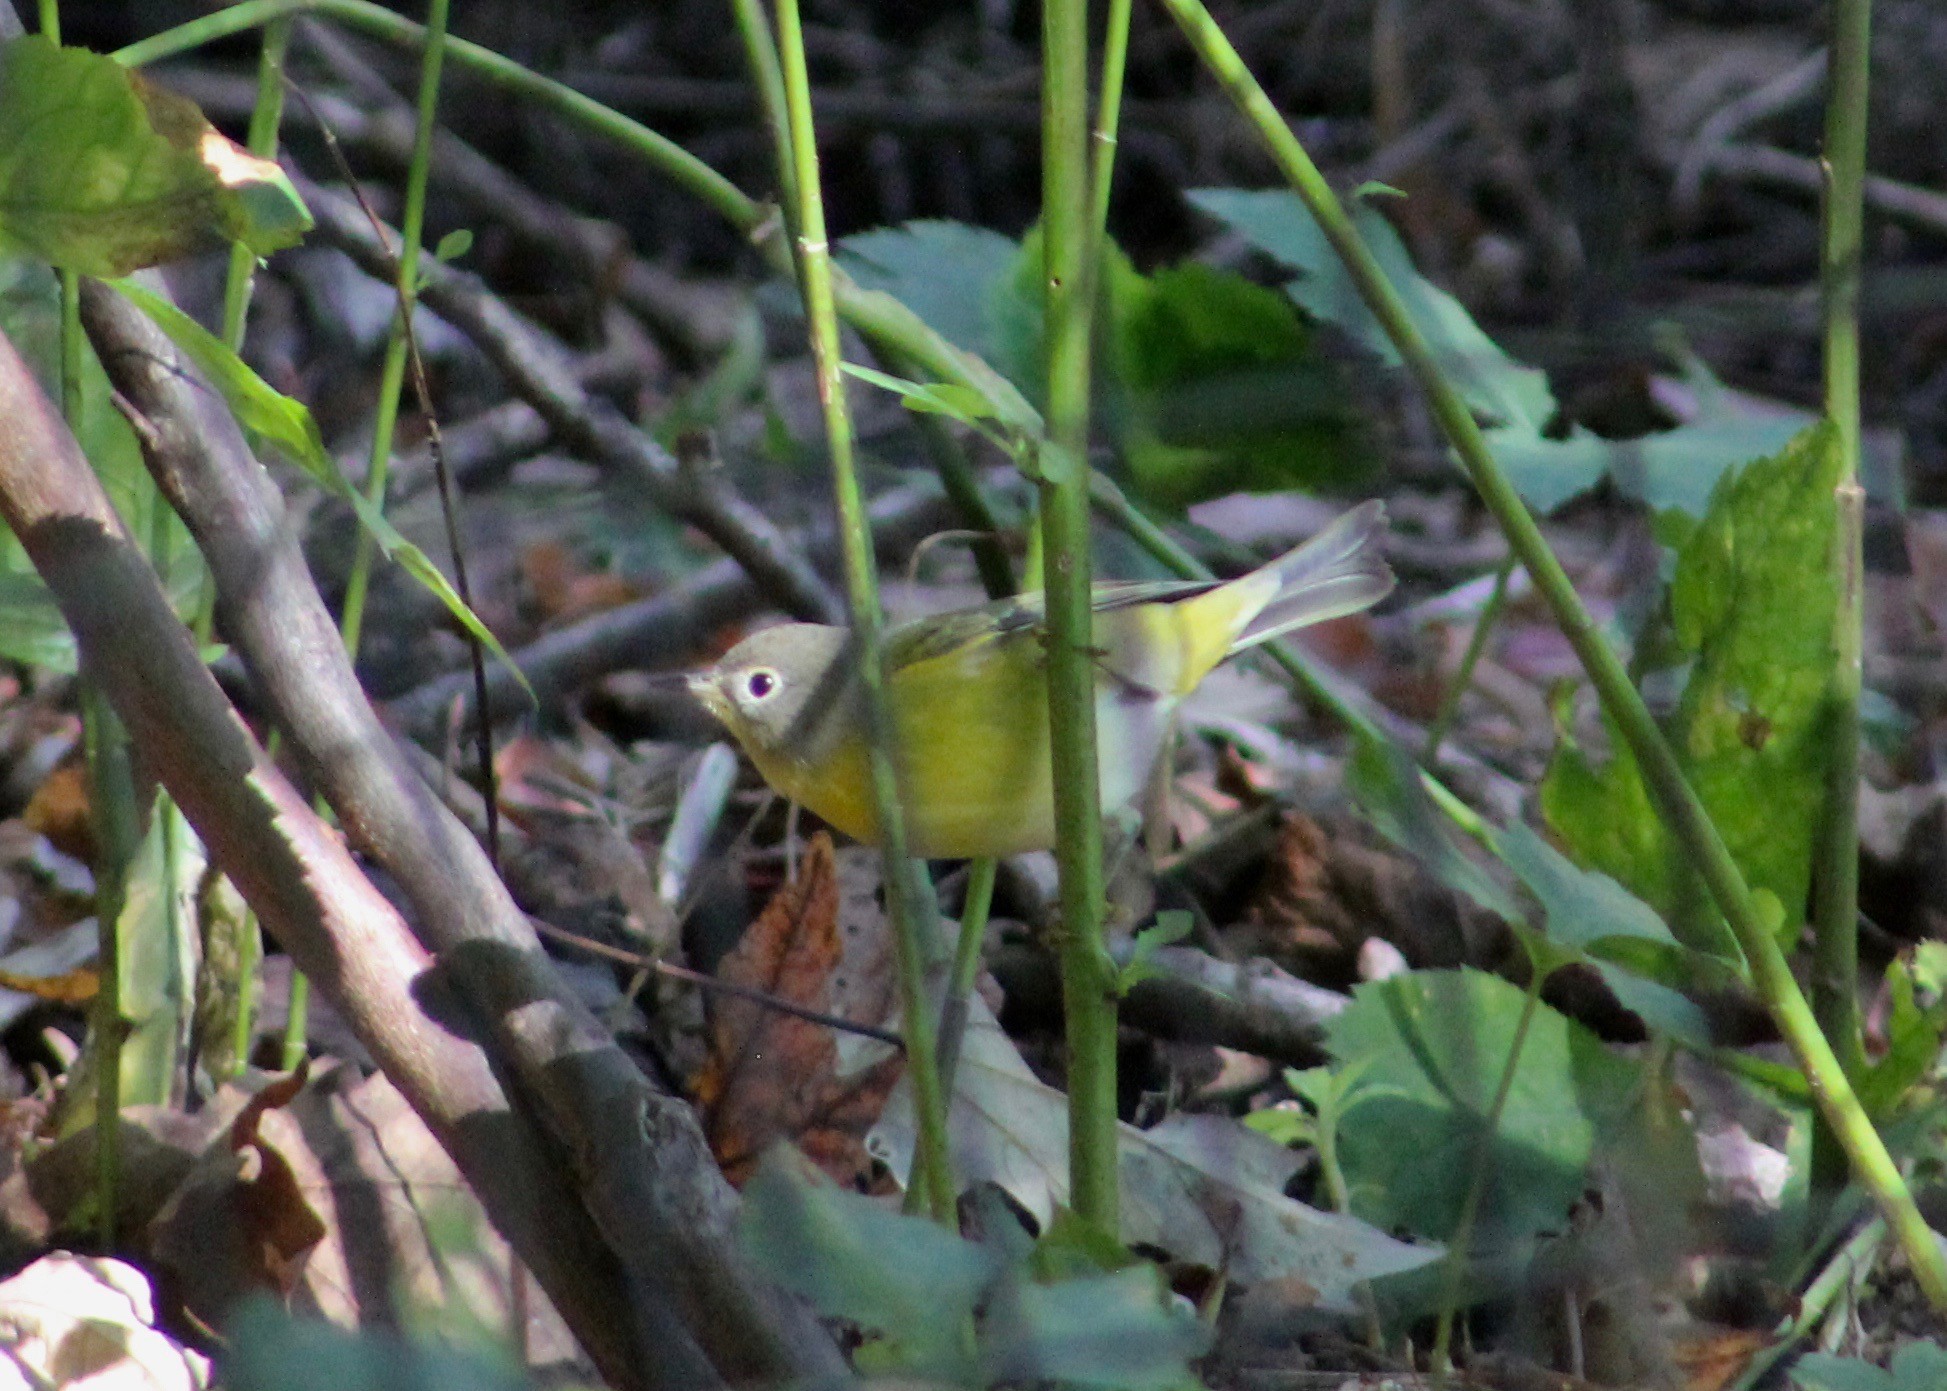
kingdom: Animalia
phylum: Chordata
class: Aves
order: Passeriformes
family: Parulidae
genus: Leiothlypis
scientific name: Leiothlypis ruficapilla
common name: Nashville warbler
